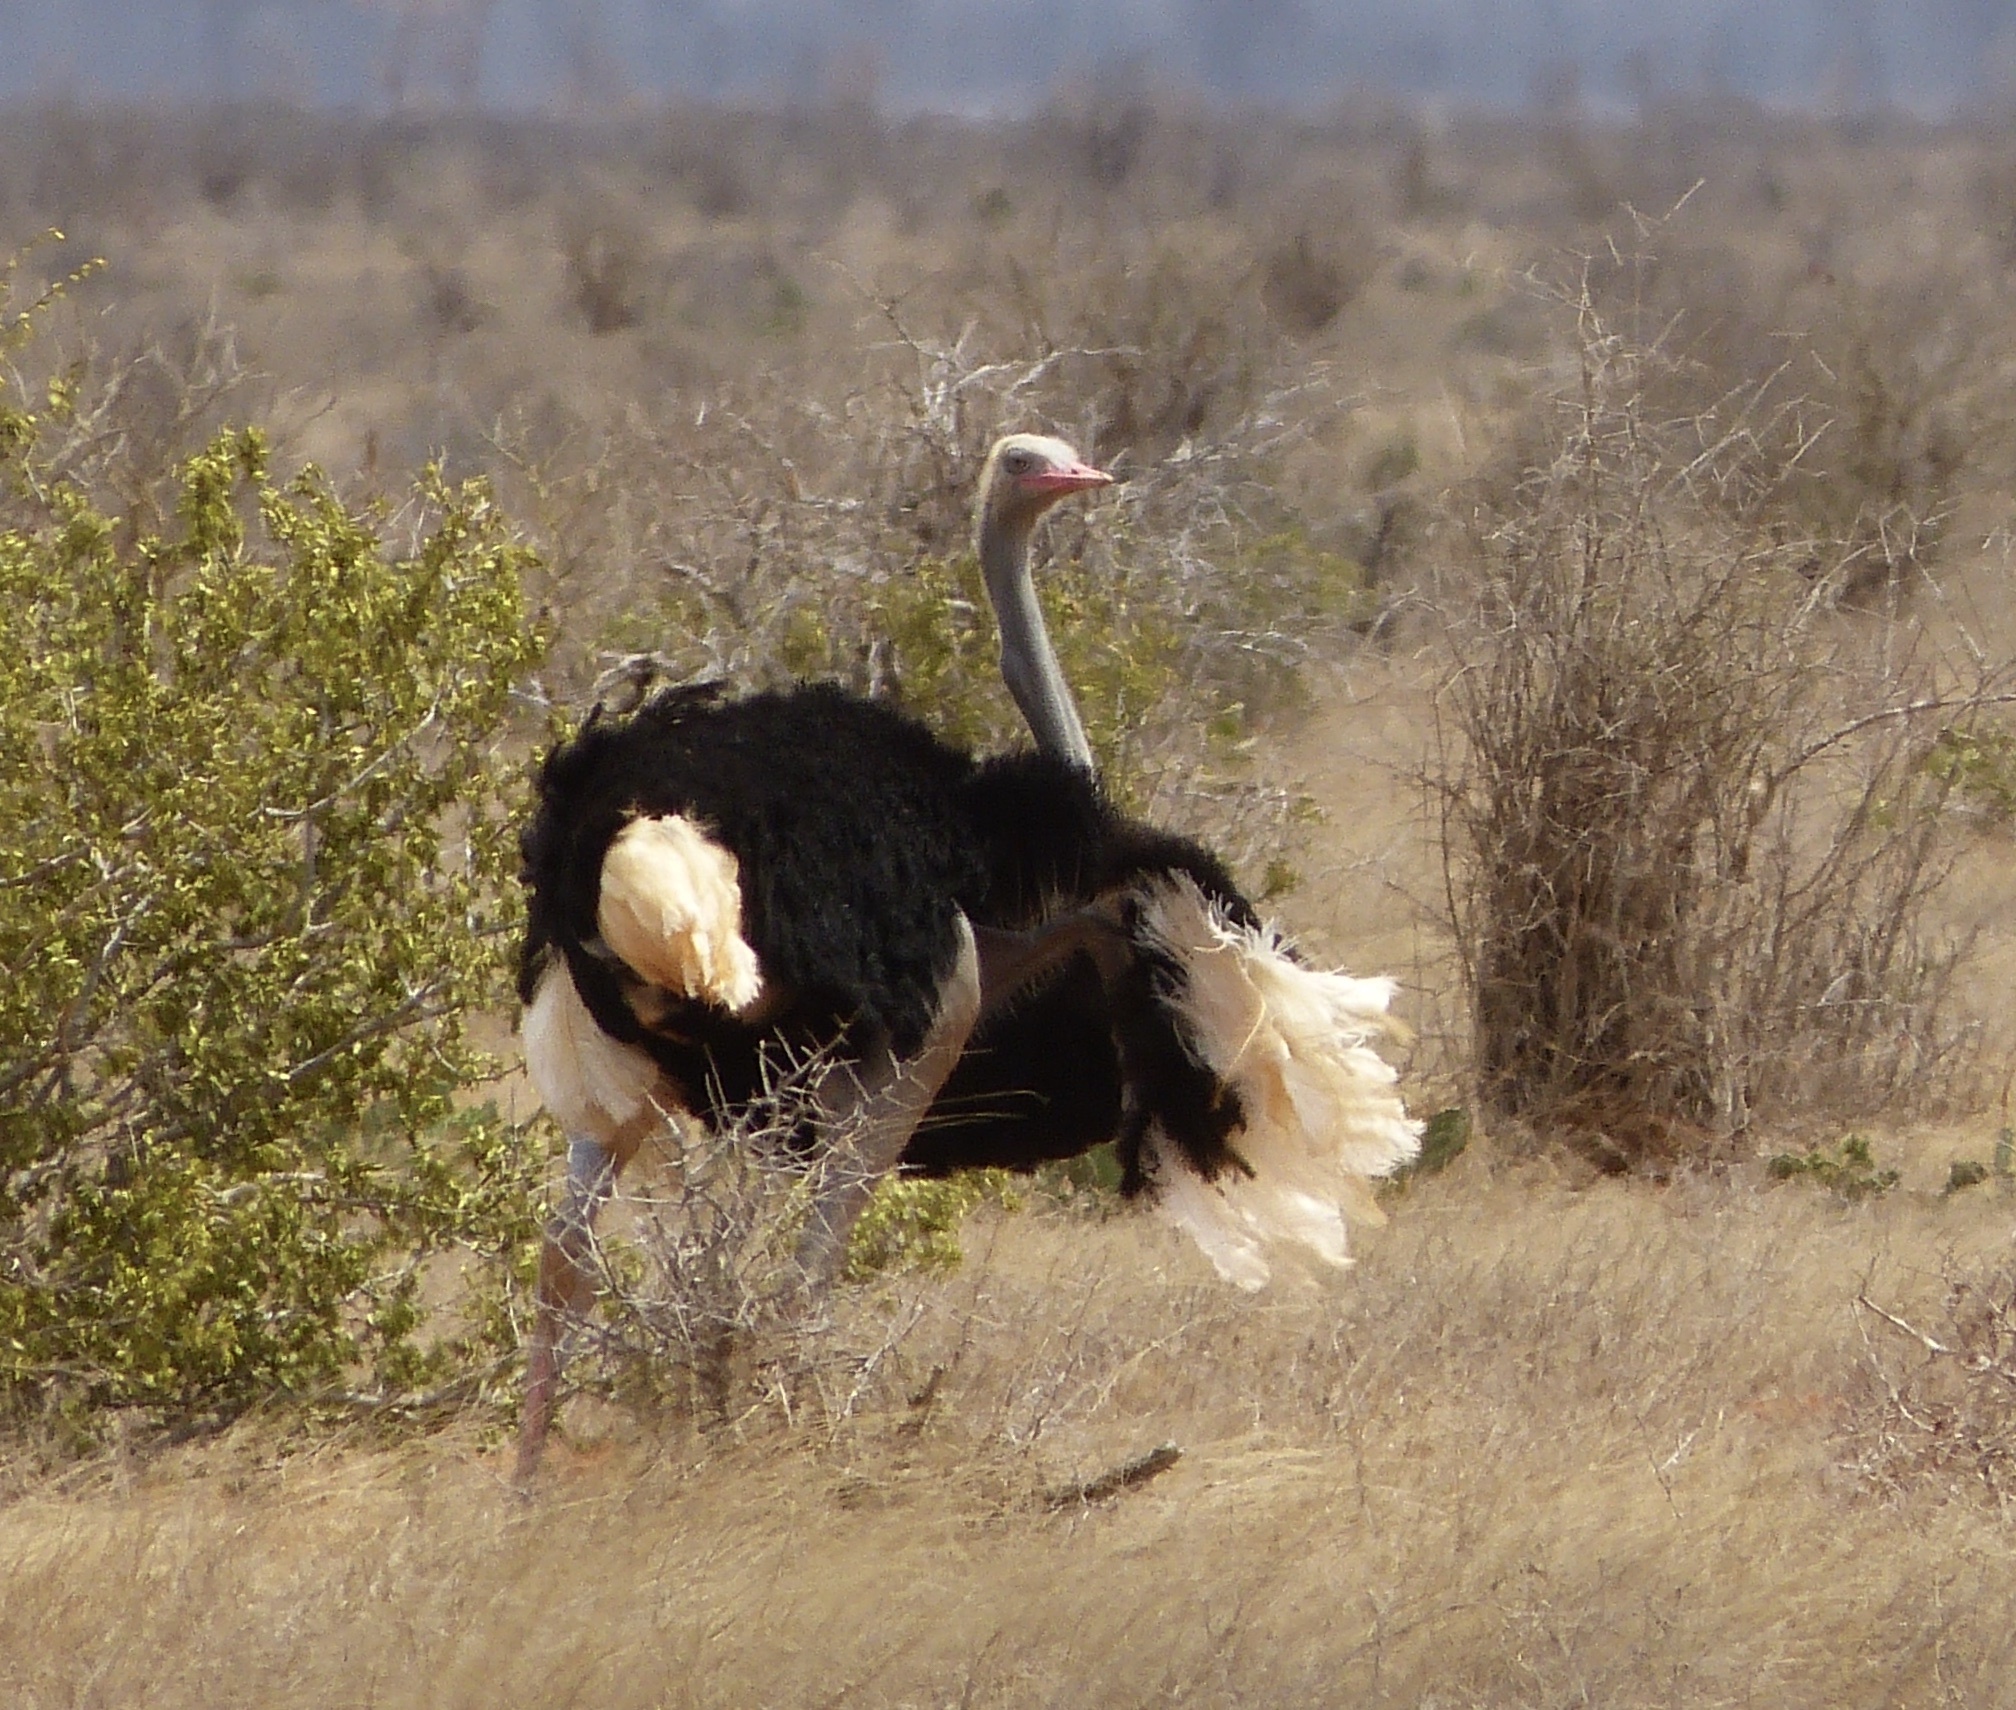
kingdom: Animalia
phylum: Chordata
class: Aves
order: Struthioniformes
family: Struthionidae
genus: Struthio
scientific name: Struthio molybdophanes
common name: Somali ostrich
